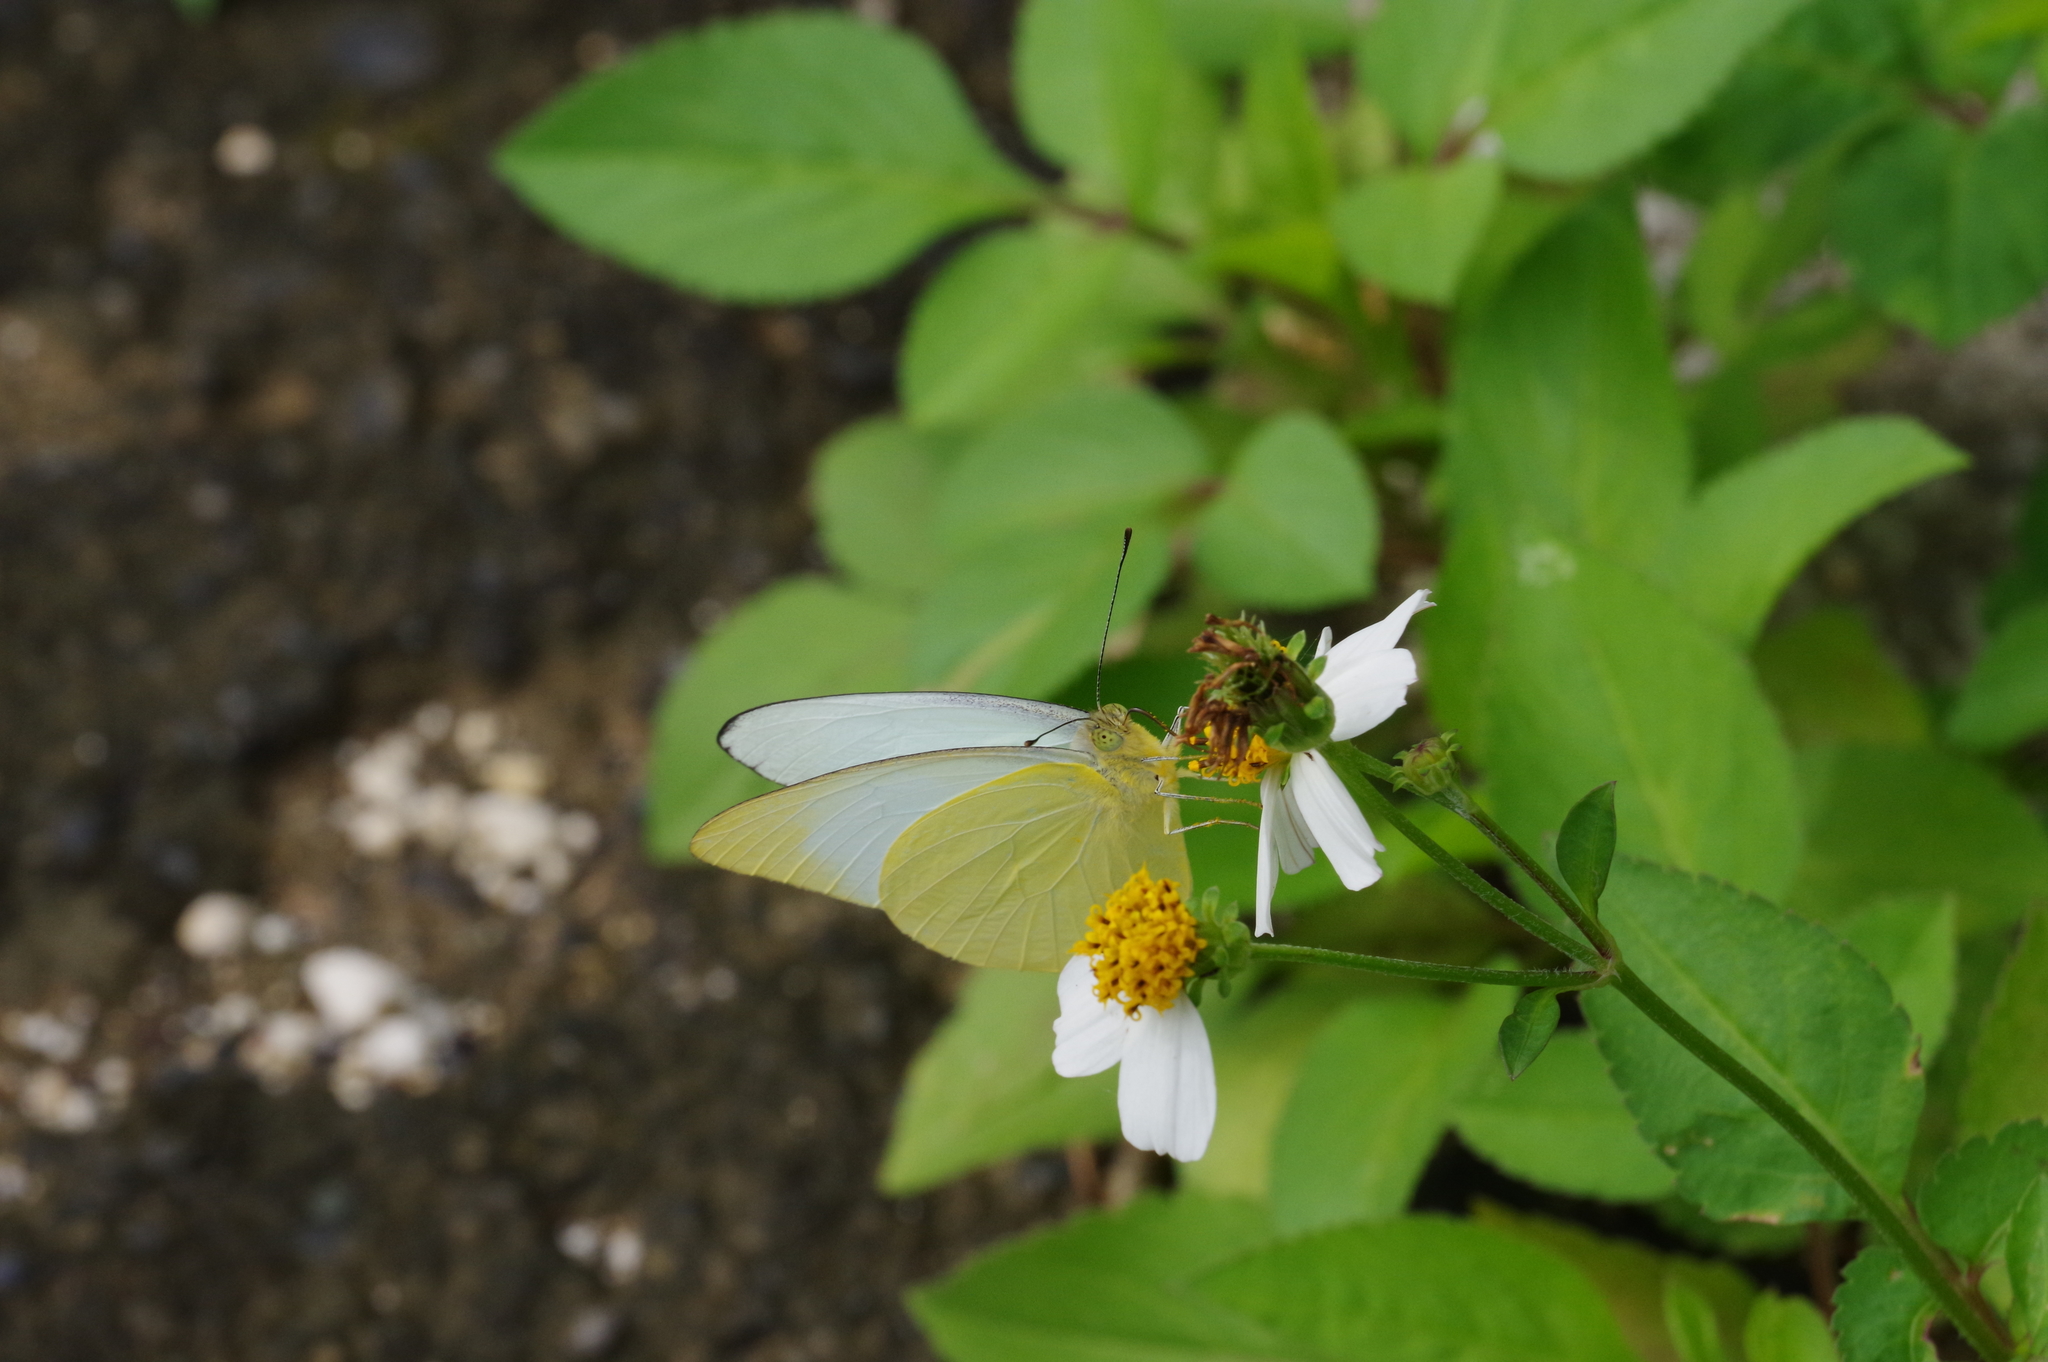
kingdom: Animalia
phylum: Arthropoda
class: Insecta
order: Lepidoptera
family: Pieridae
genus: Appias
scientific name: Appias paulina
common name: Ceylon lesser albatross
